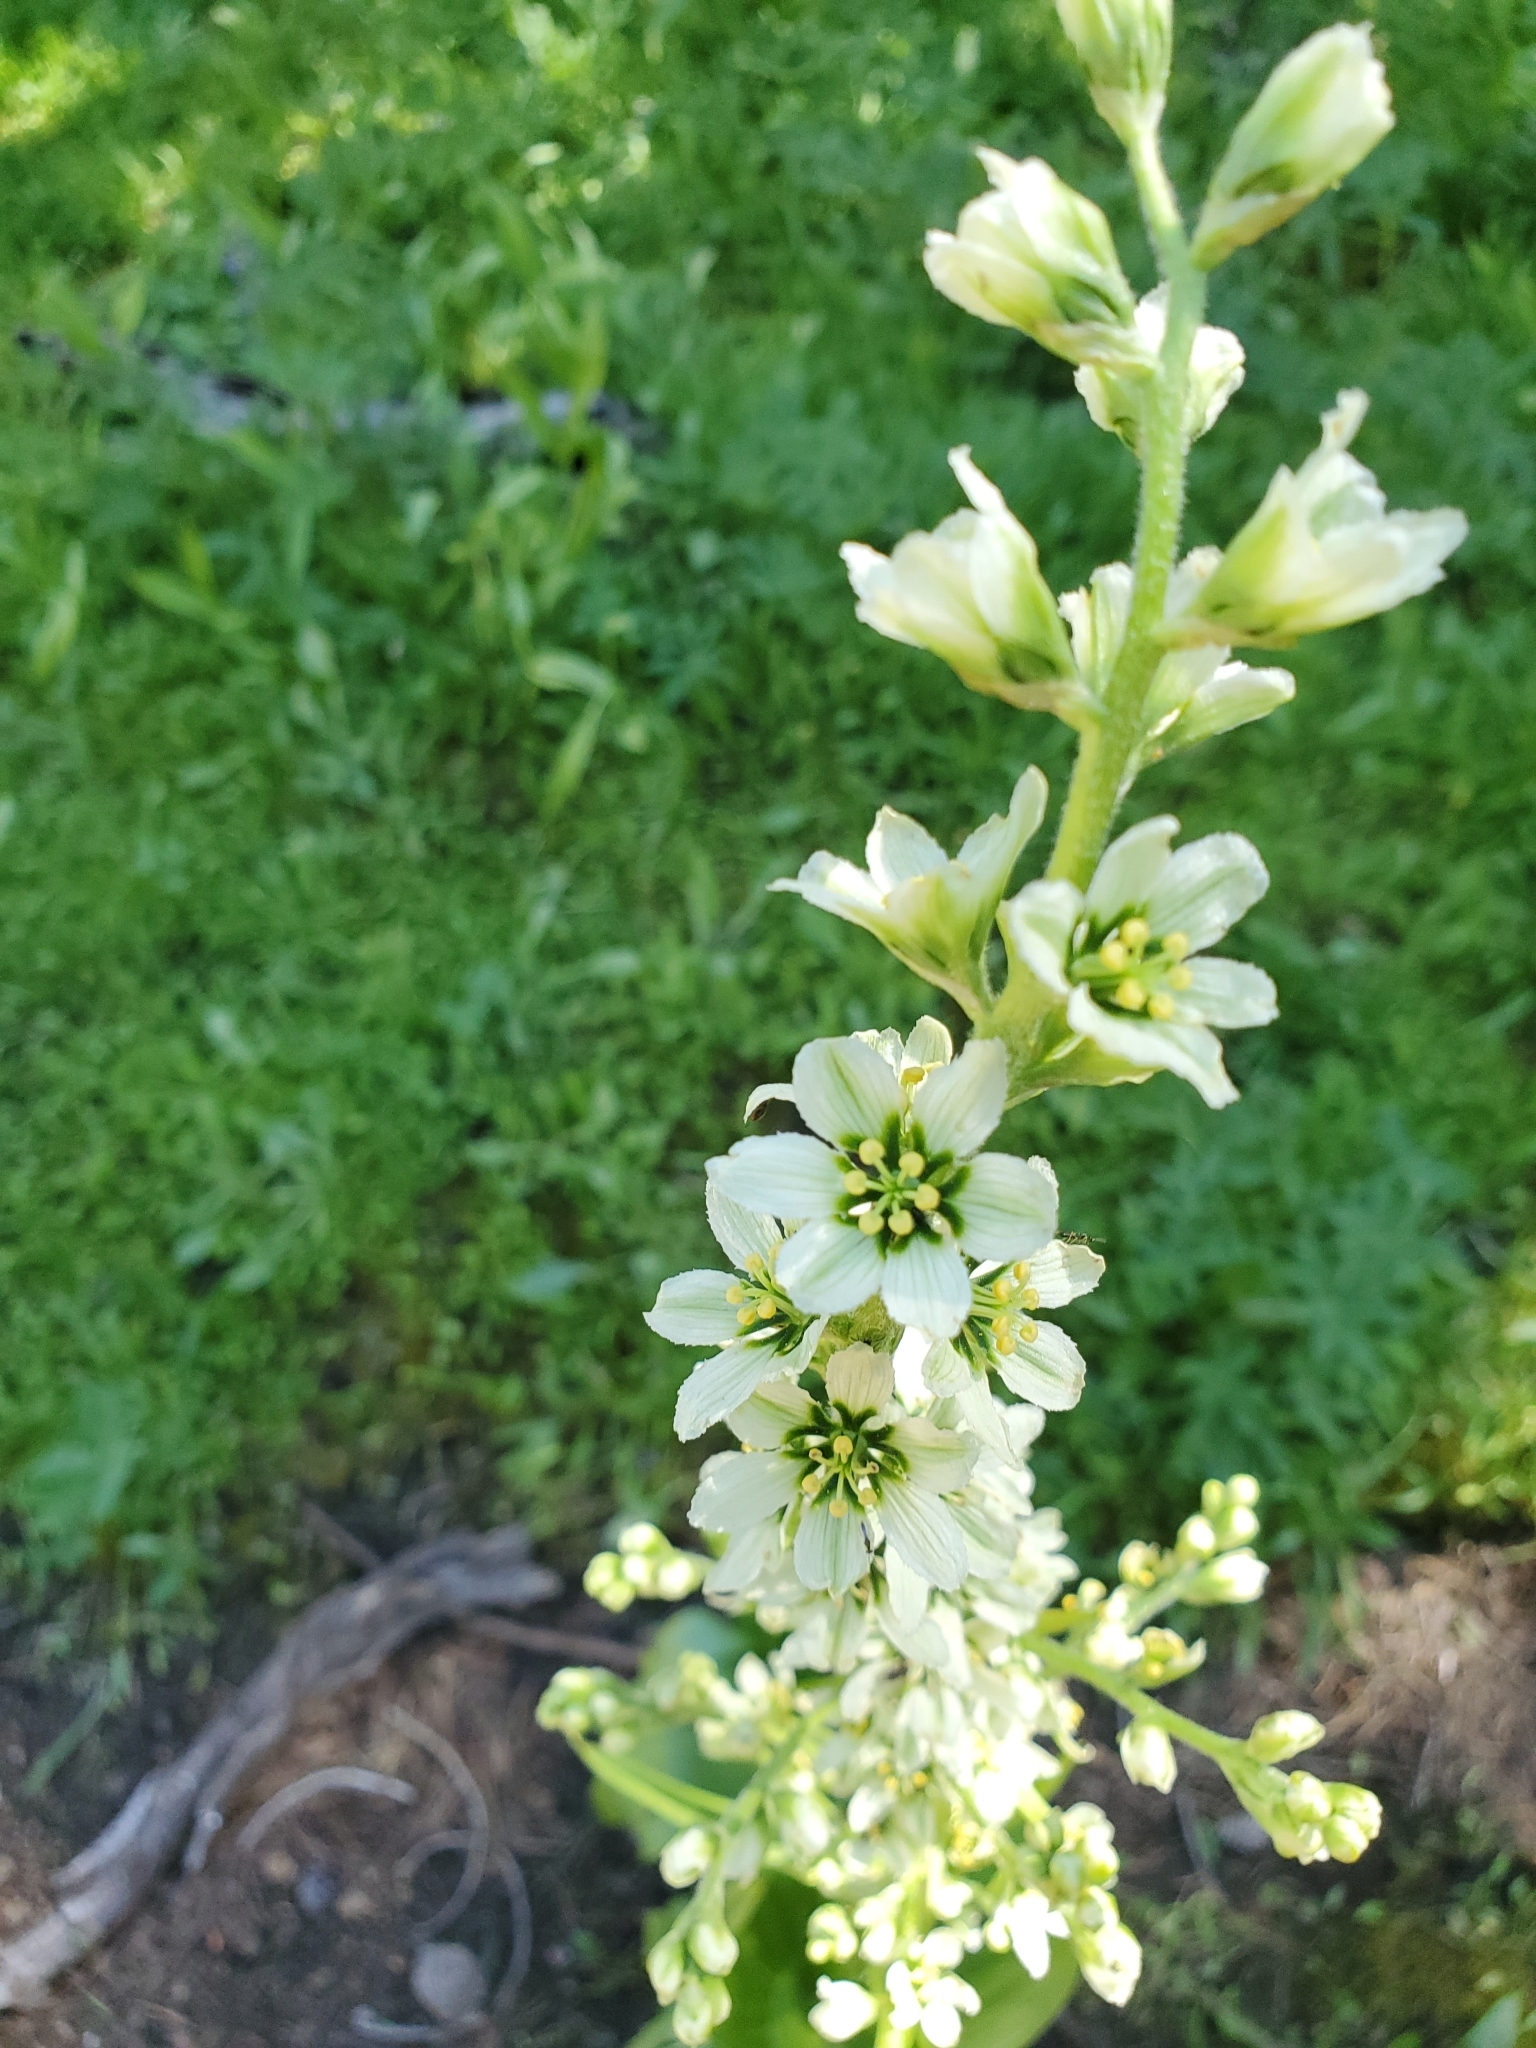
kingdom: Plantae
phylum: Tracheophyta
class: Liliopsida
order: Liliales
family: Melanthiaceae
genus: Veratrum
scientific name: Veratrum californicum
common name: California veratrum
